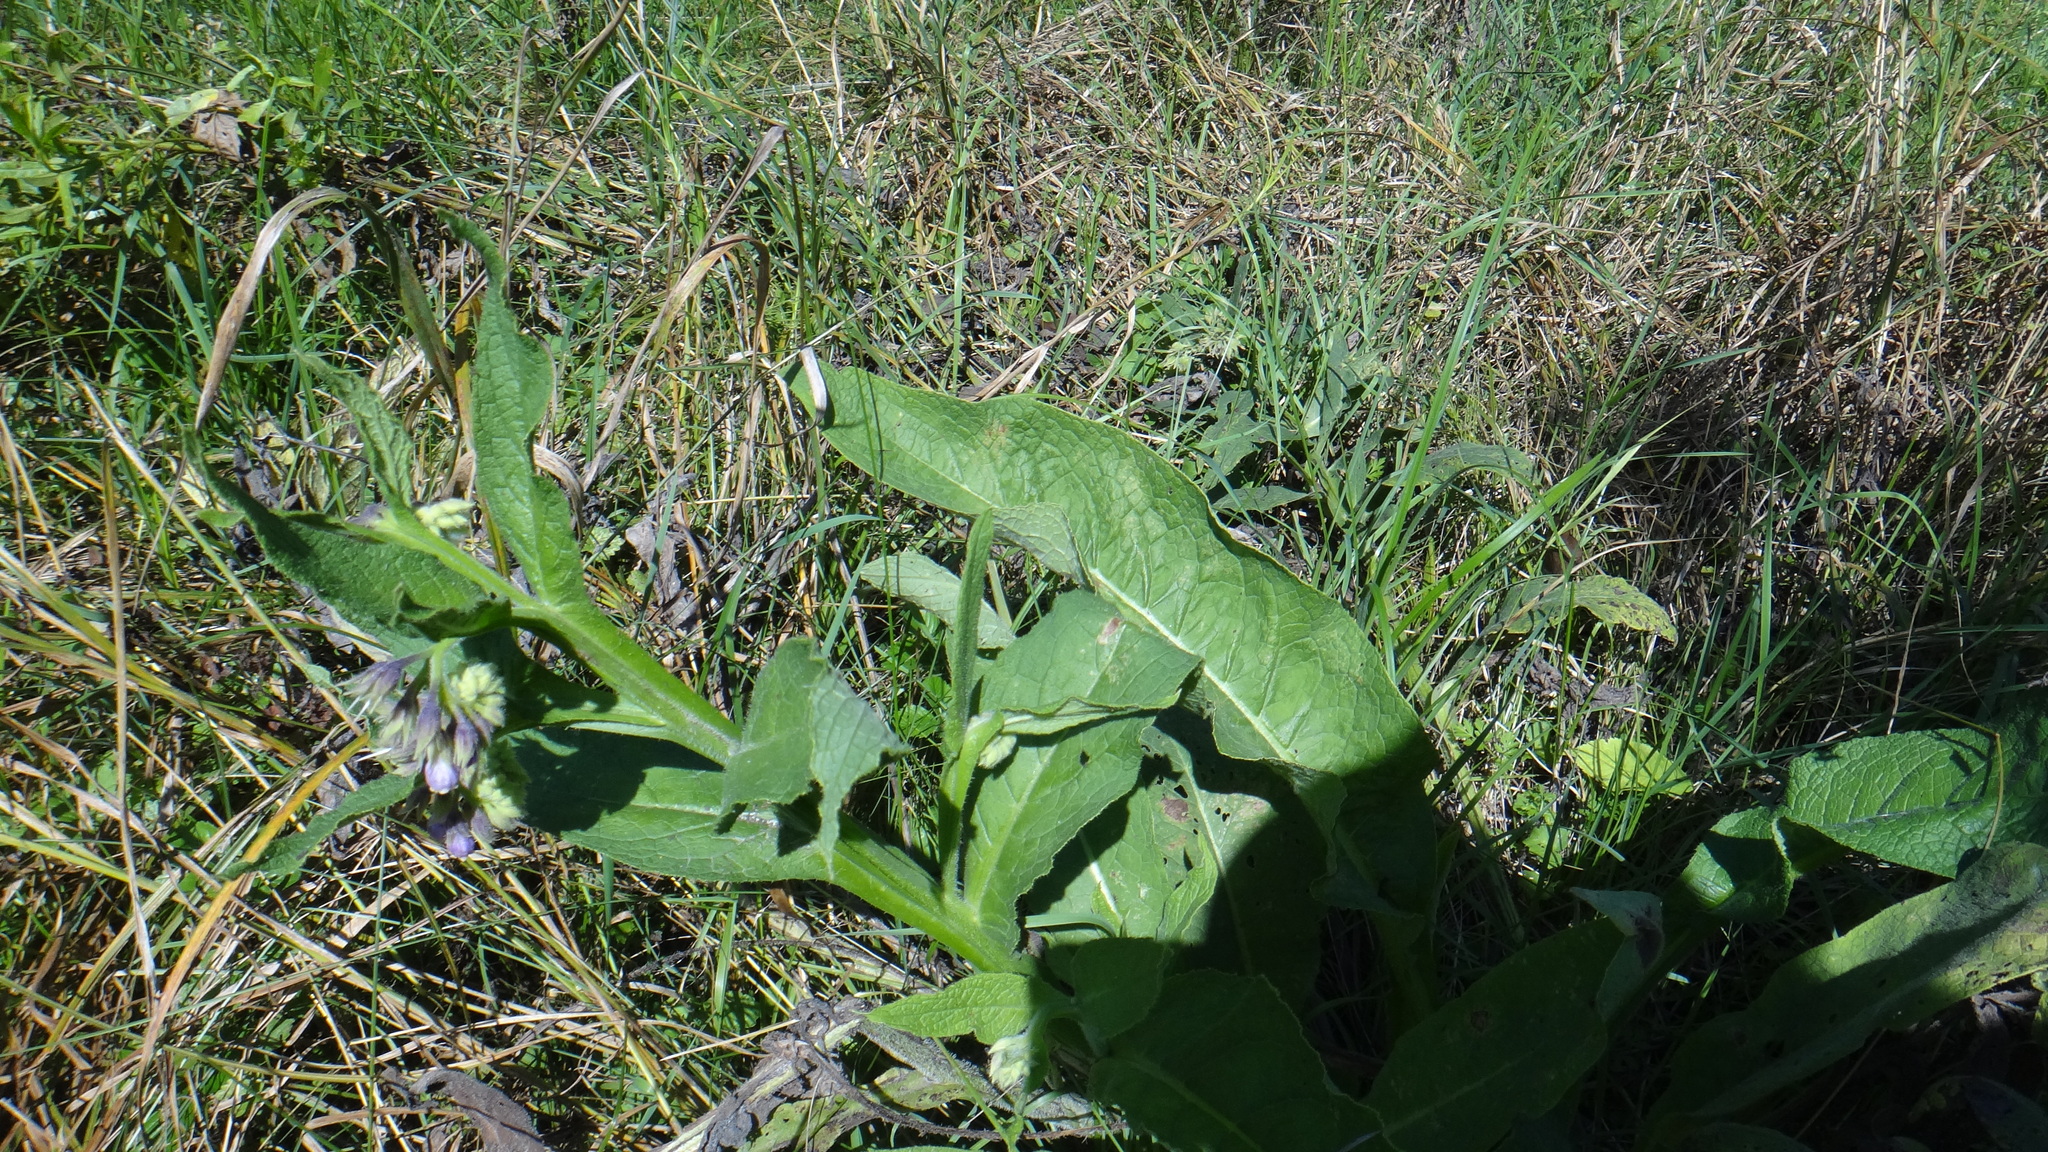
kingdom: Plantae
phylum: Tracheophyta
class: Magnoliopsida
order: Boraginales
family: Boraginaceae
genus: Symphytum
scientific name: Symphytum officinale
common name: Common comfrey
